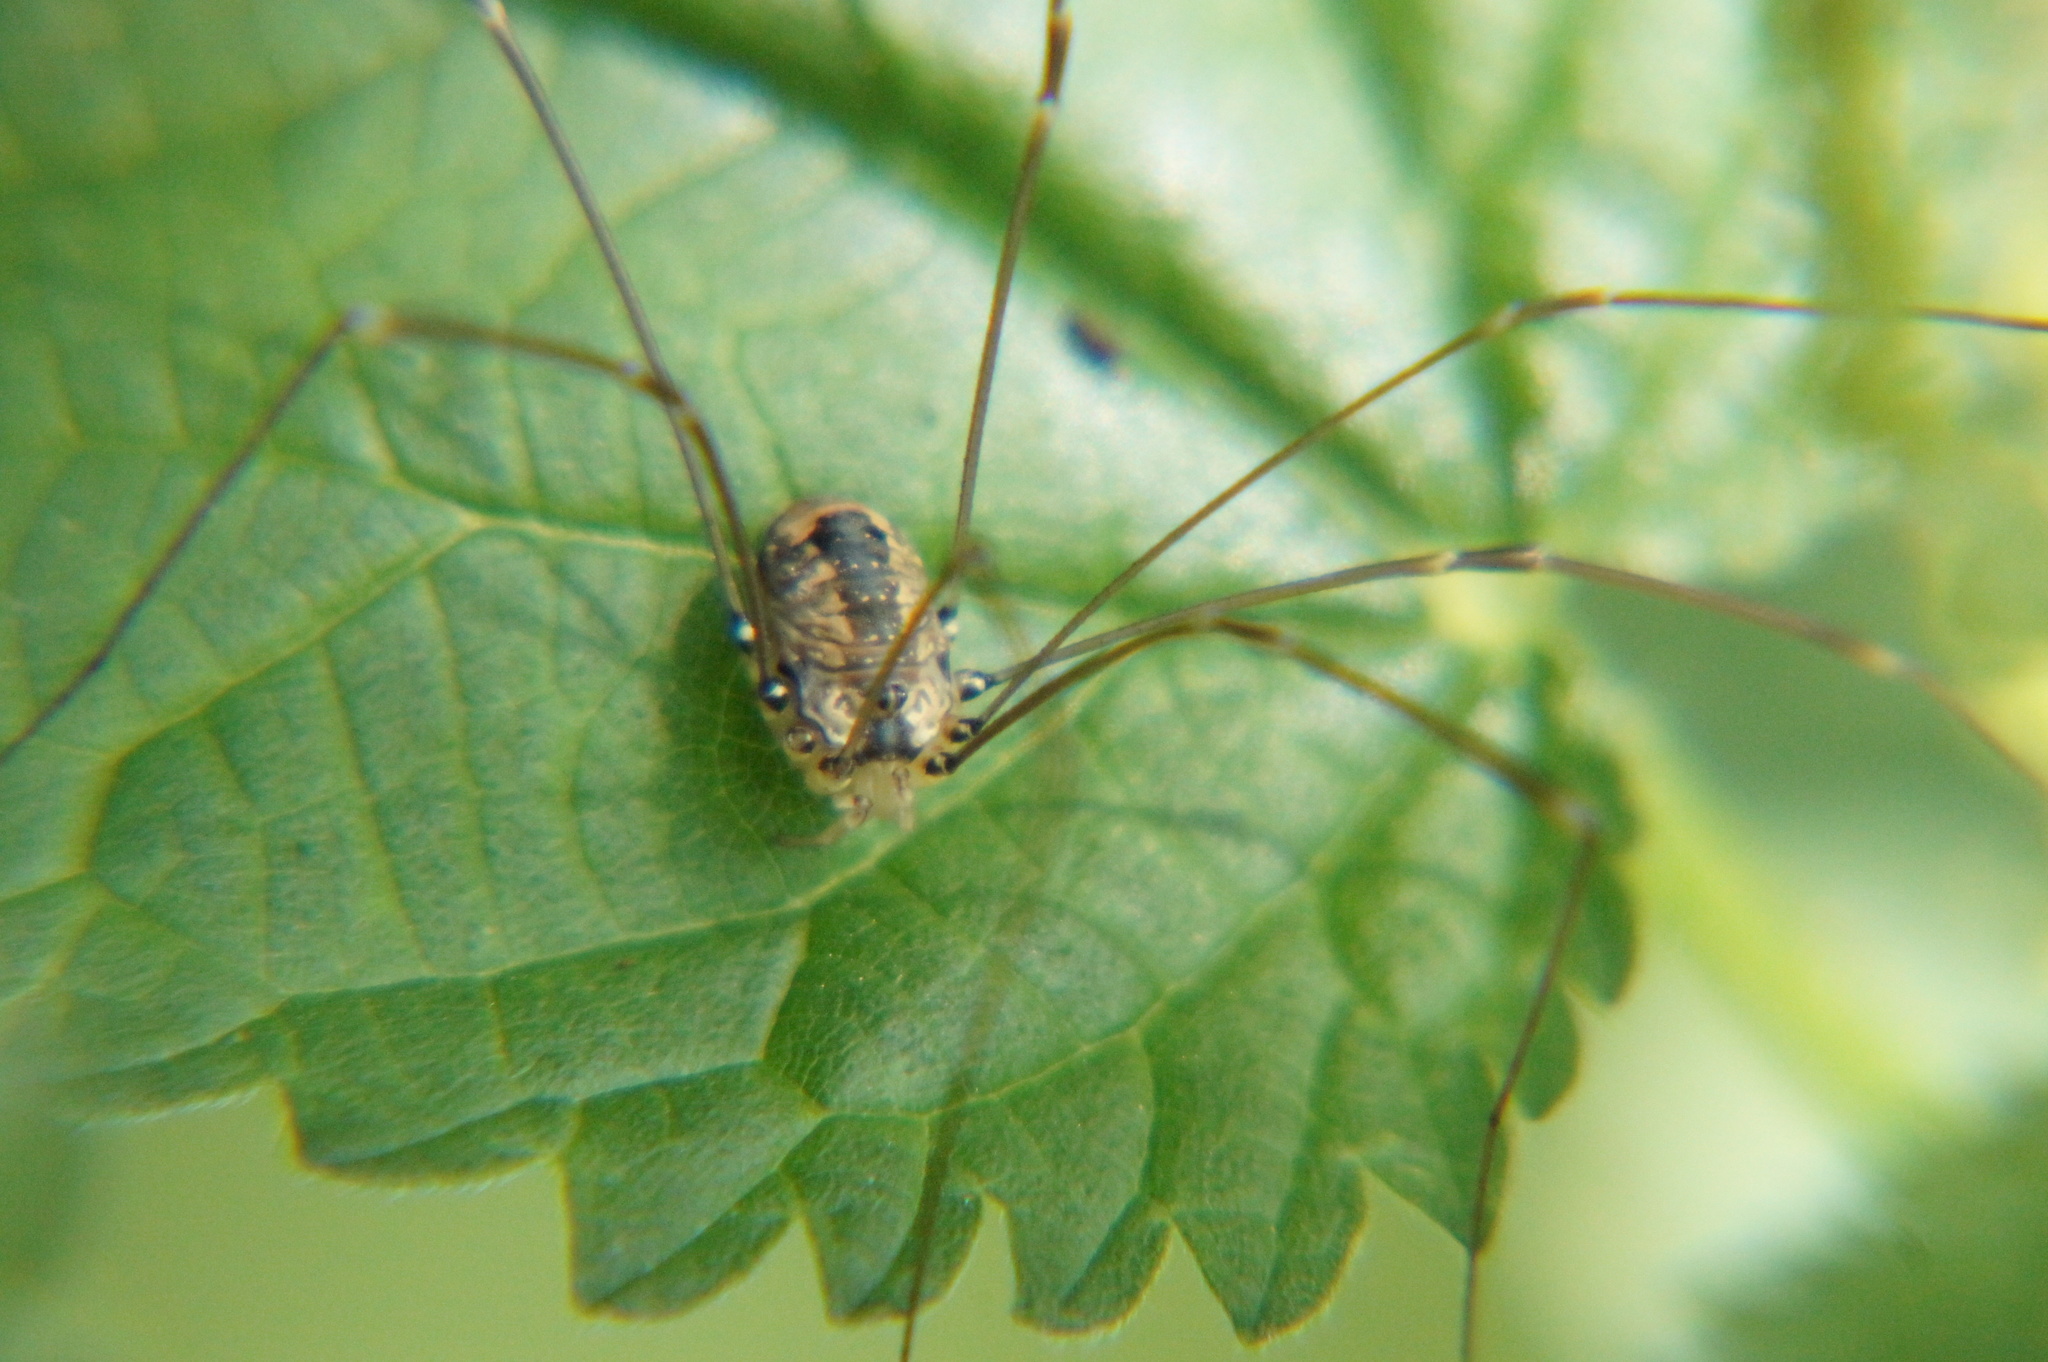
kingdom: Animalia
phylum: Arthropoda
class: Arachnida
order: Opiliones
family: Sclerosomatidae
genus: Leiobunum
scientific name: Leiobunum rotundum
